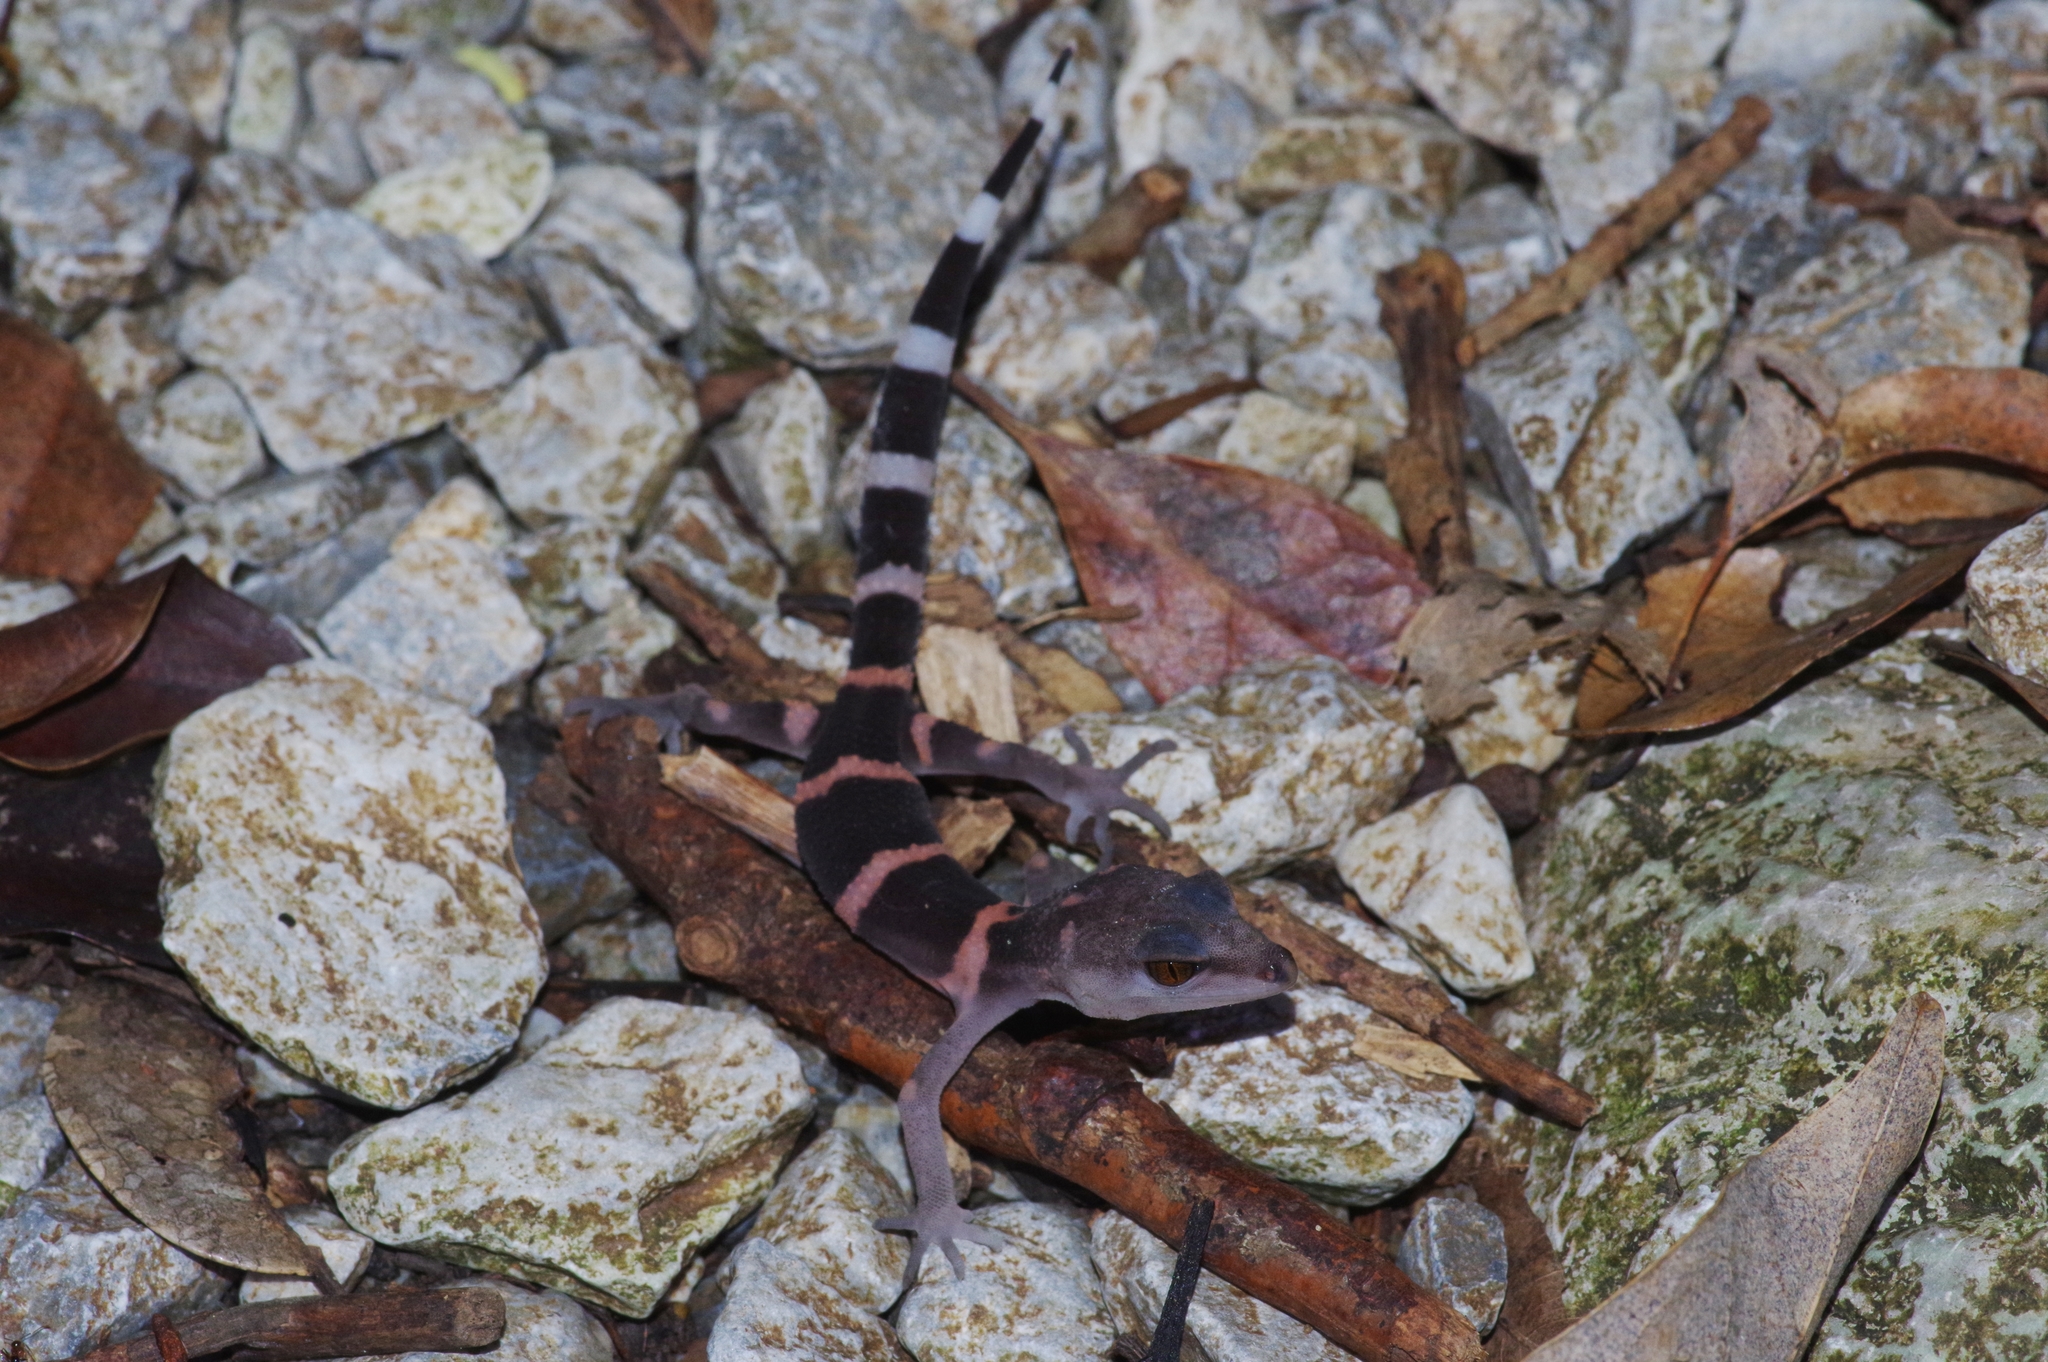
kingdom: Animalia
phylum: Chordata
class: Squamata
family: Eublepharidae
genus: Goniurosaurus
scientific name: Goniurosaurus kuroiwae
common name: Tokashiki gecko
